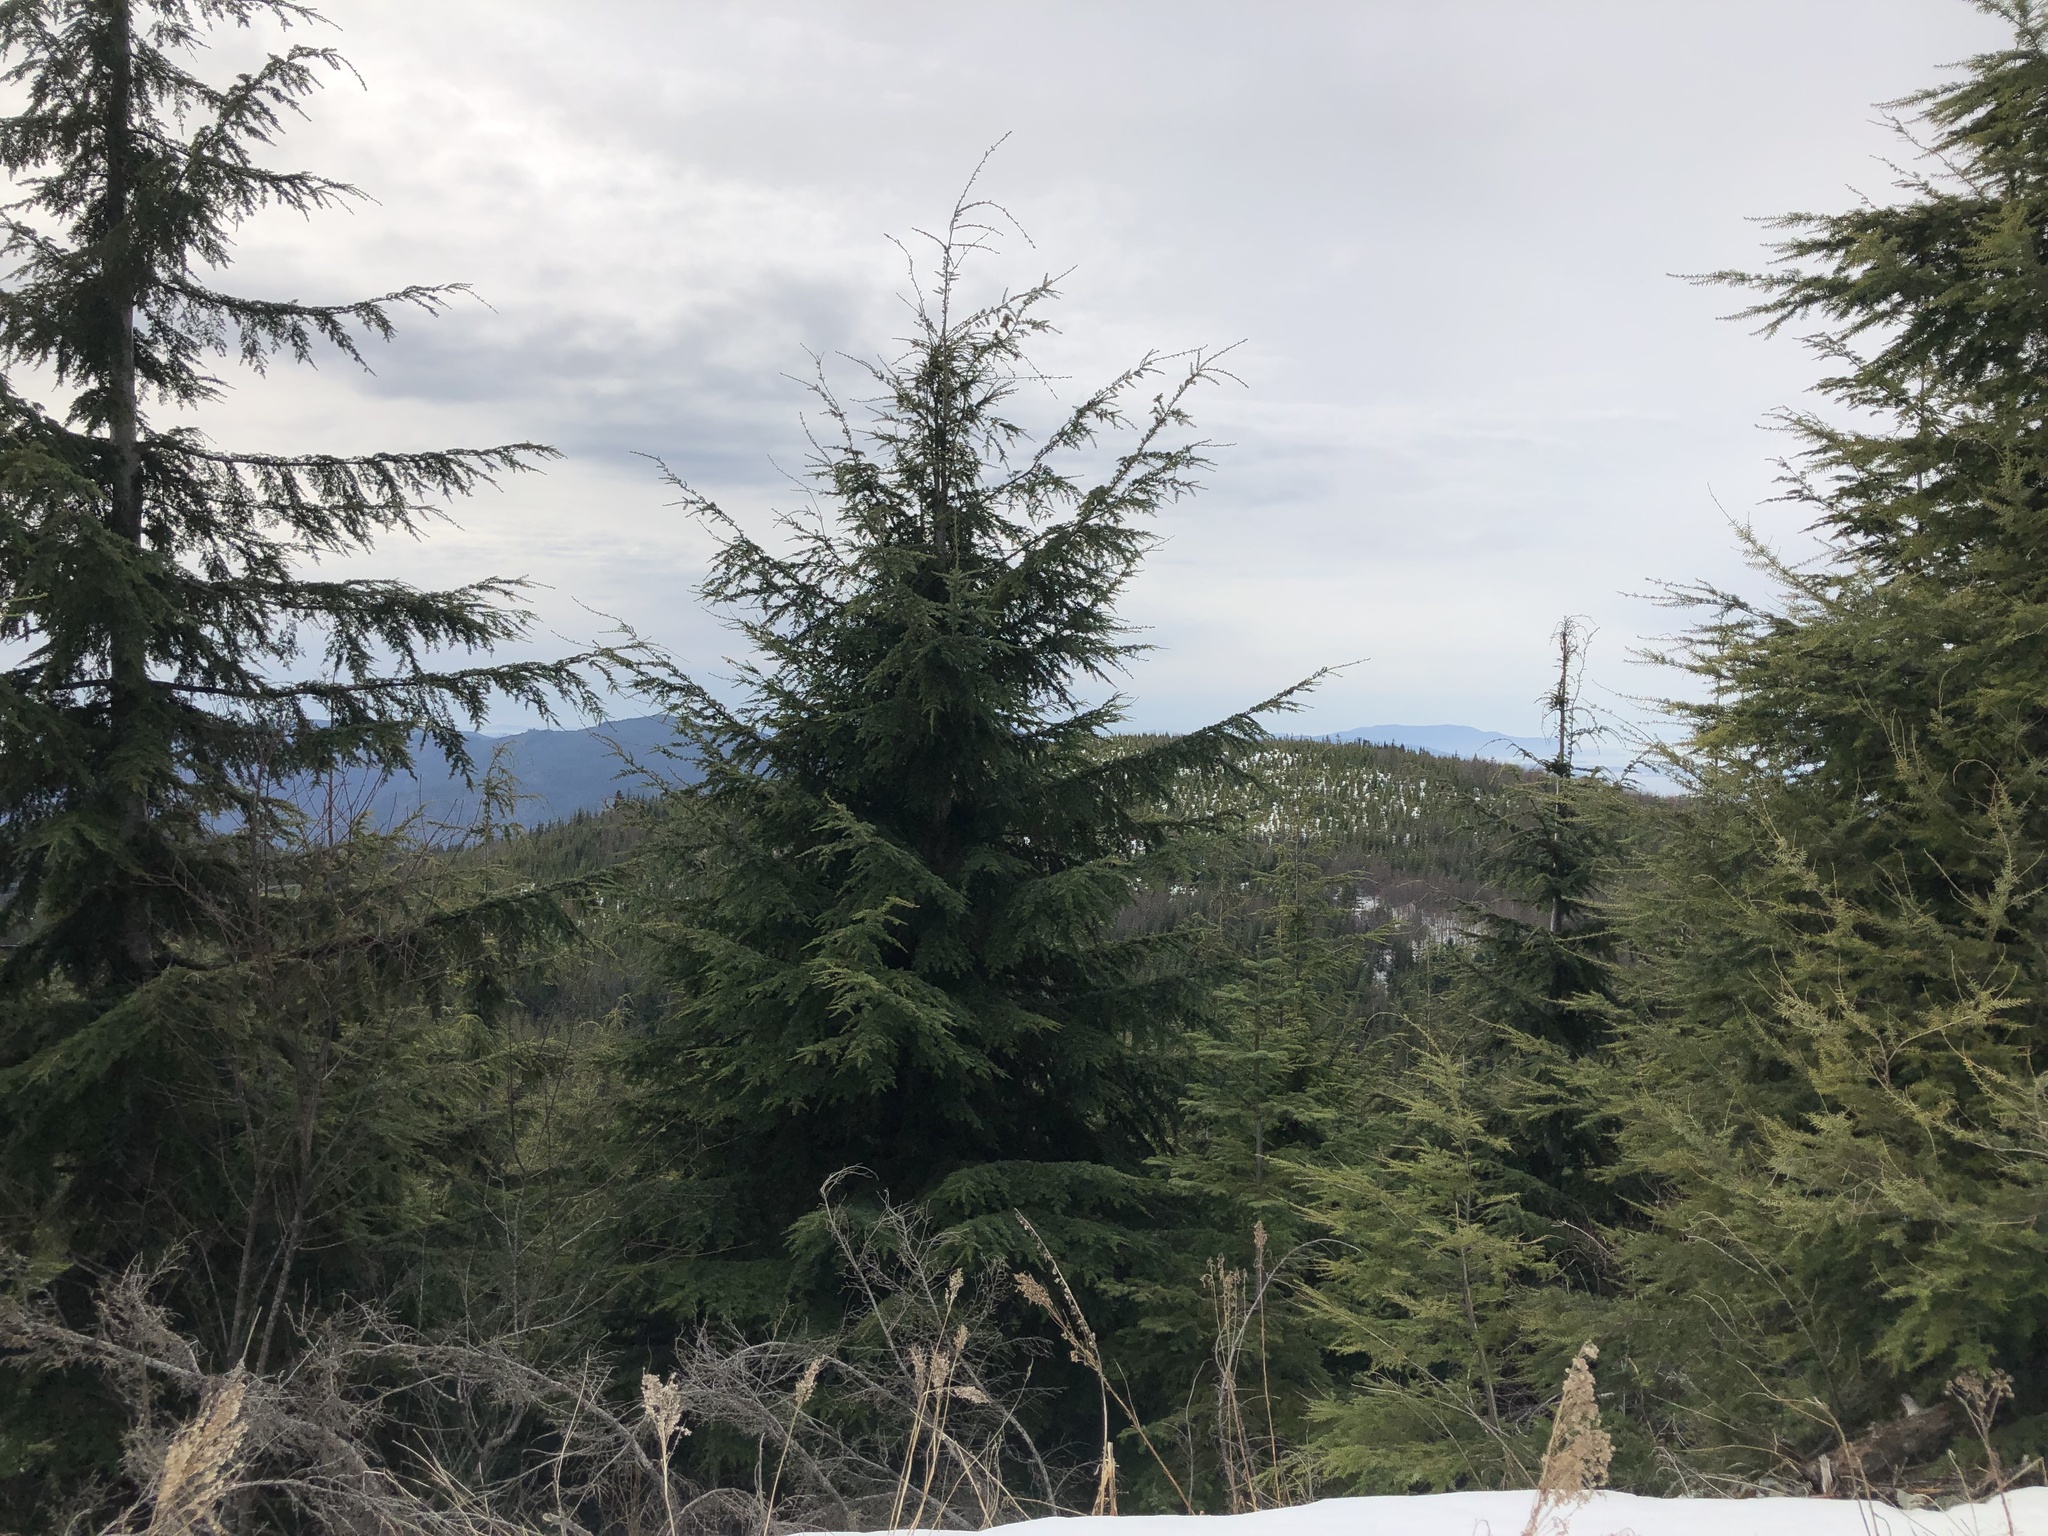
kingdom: Plantae
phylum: Tracheophyta
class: Pinopsida
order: Pinales
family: Pinaceae
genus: Tsuga
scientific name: Tsuga heterophylla
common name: Western hemlock
